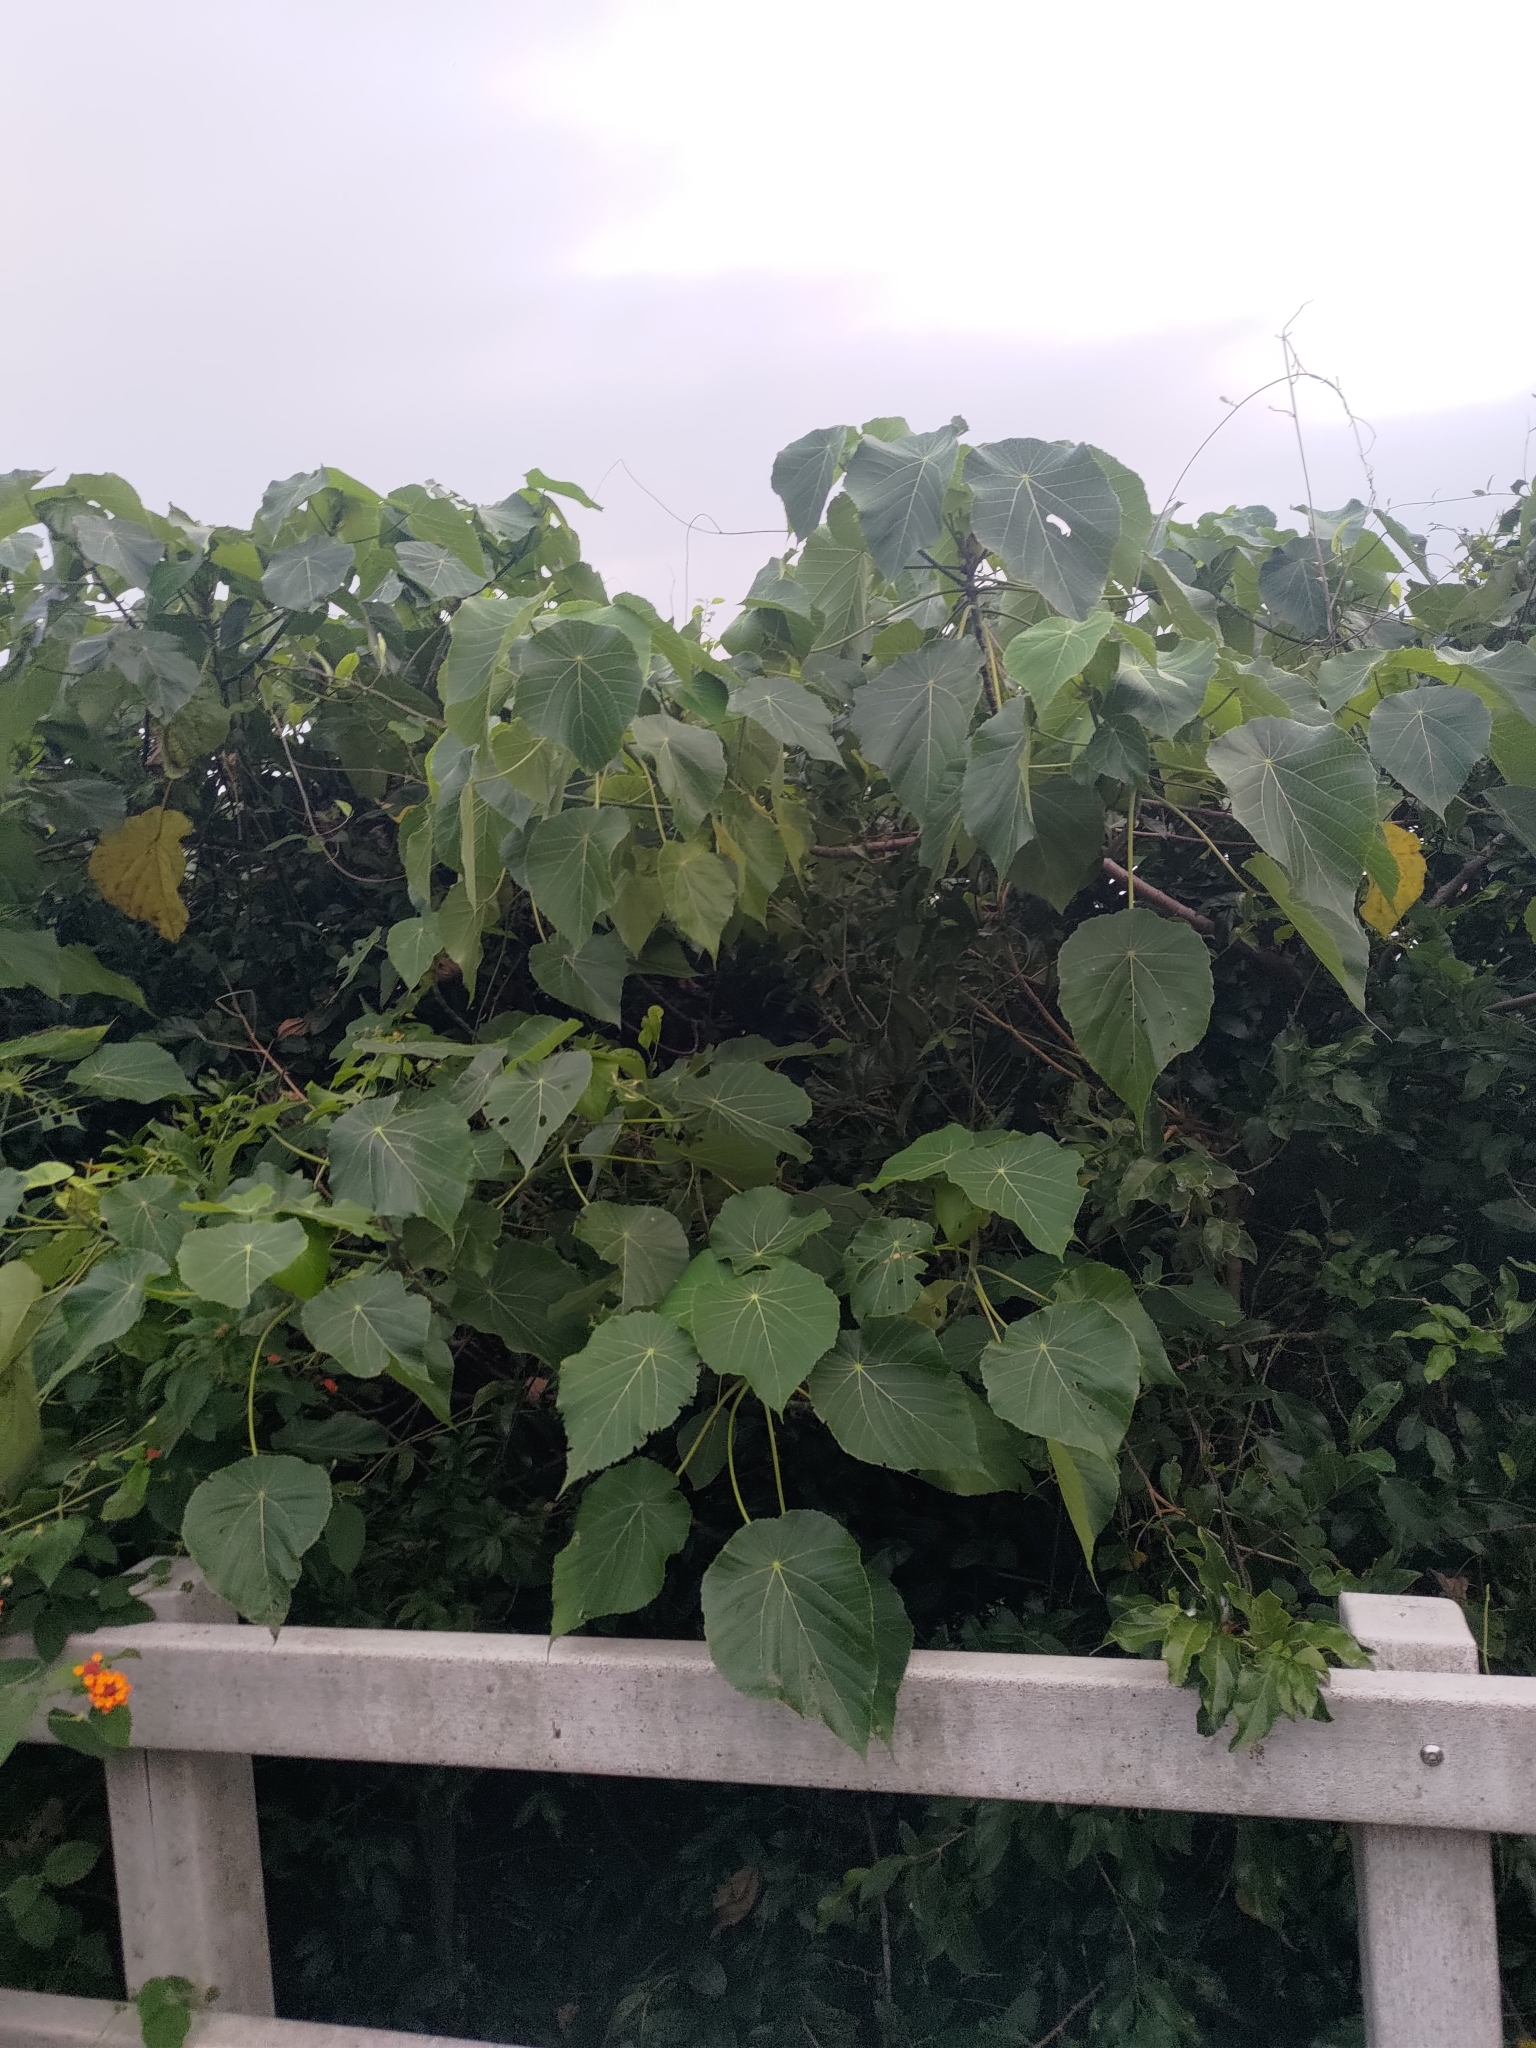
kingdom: Plantae
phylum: Tracheophyta
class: Magnoliopsida
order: Malpighiales
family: Euphorbiaceae
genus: Macaranga
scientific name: Macaranga tanarius
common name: Parasol leaf tree
